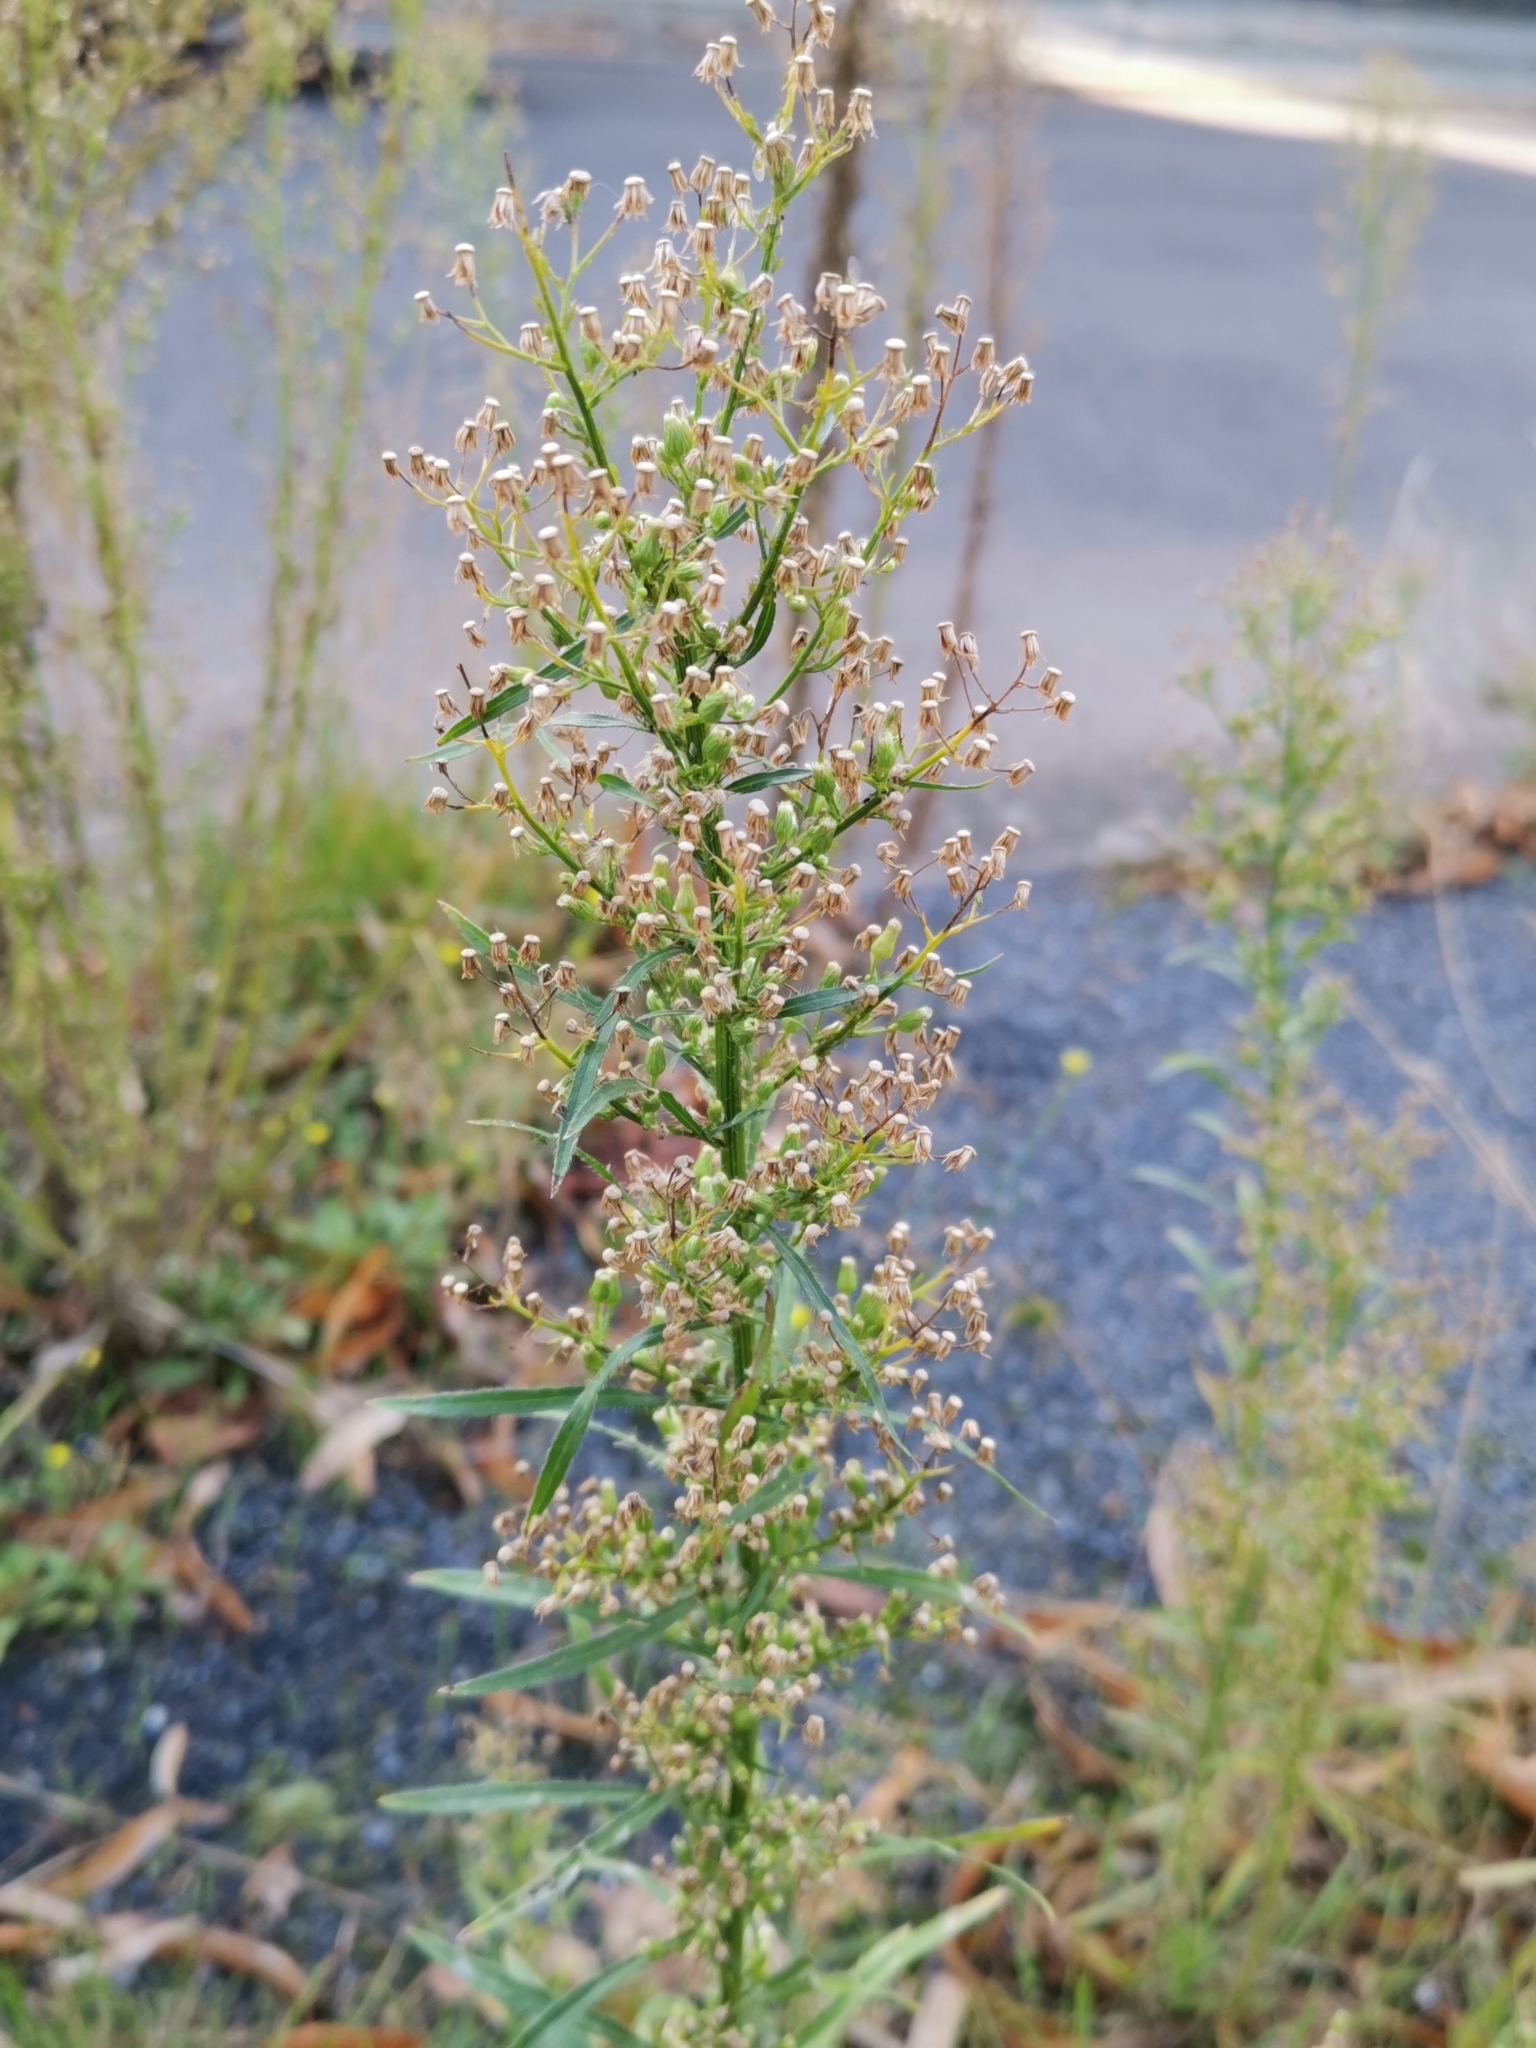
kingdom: Plantae
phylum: Tracheophyta
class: Magnoliopsida
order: Asterales
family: Asteraceae
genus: Erigeron
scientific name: Erigeron canadensis
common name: Canadian fleabane
